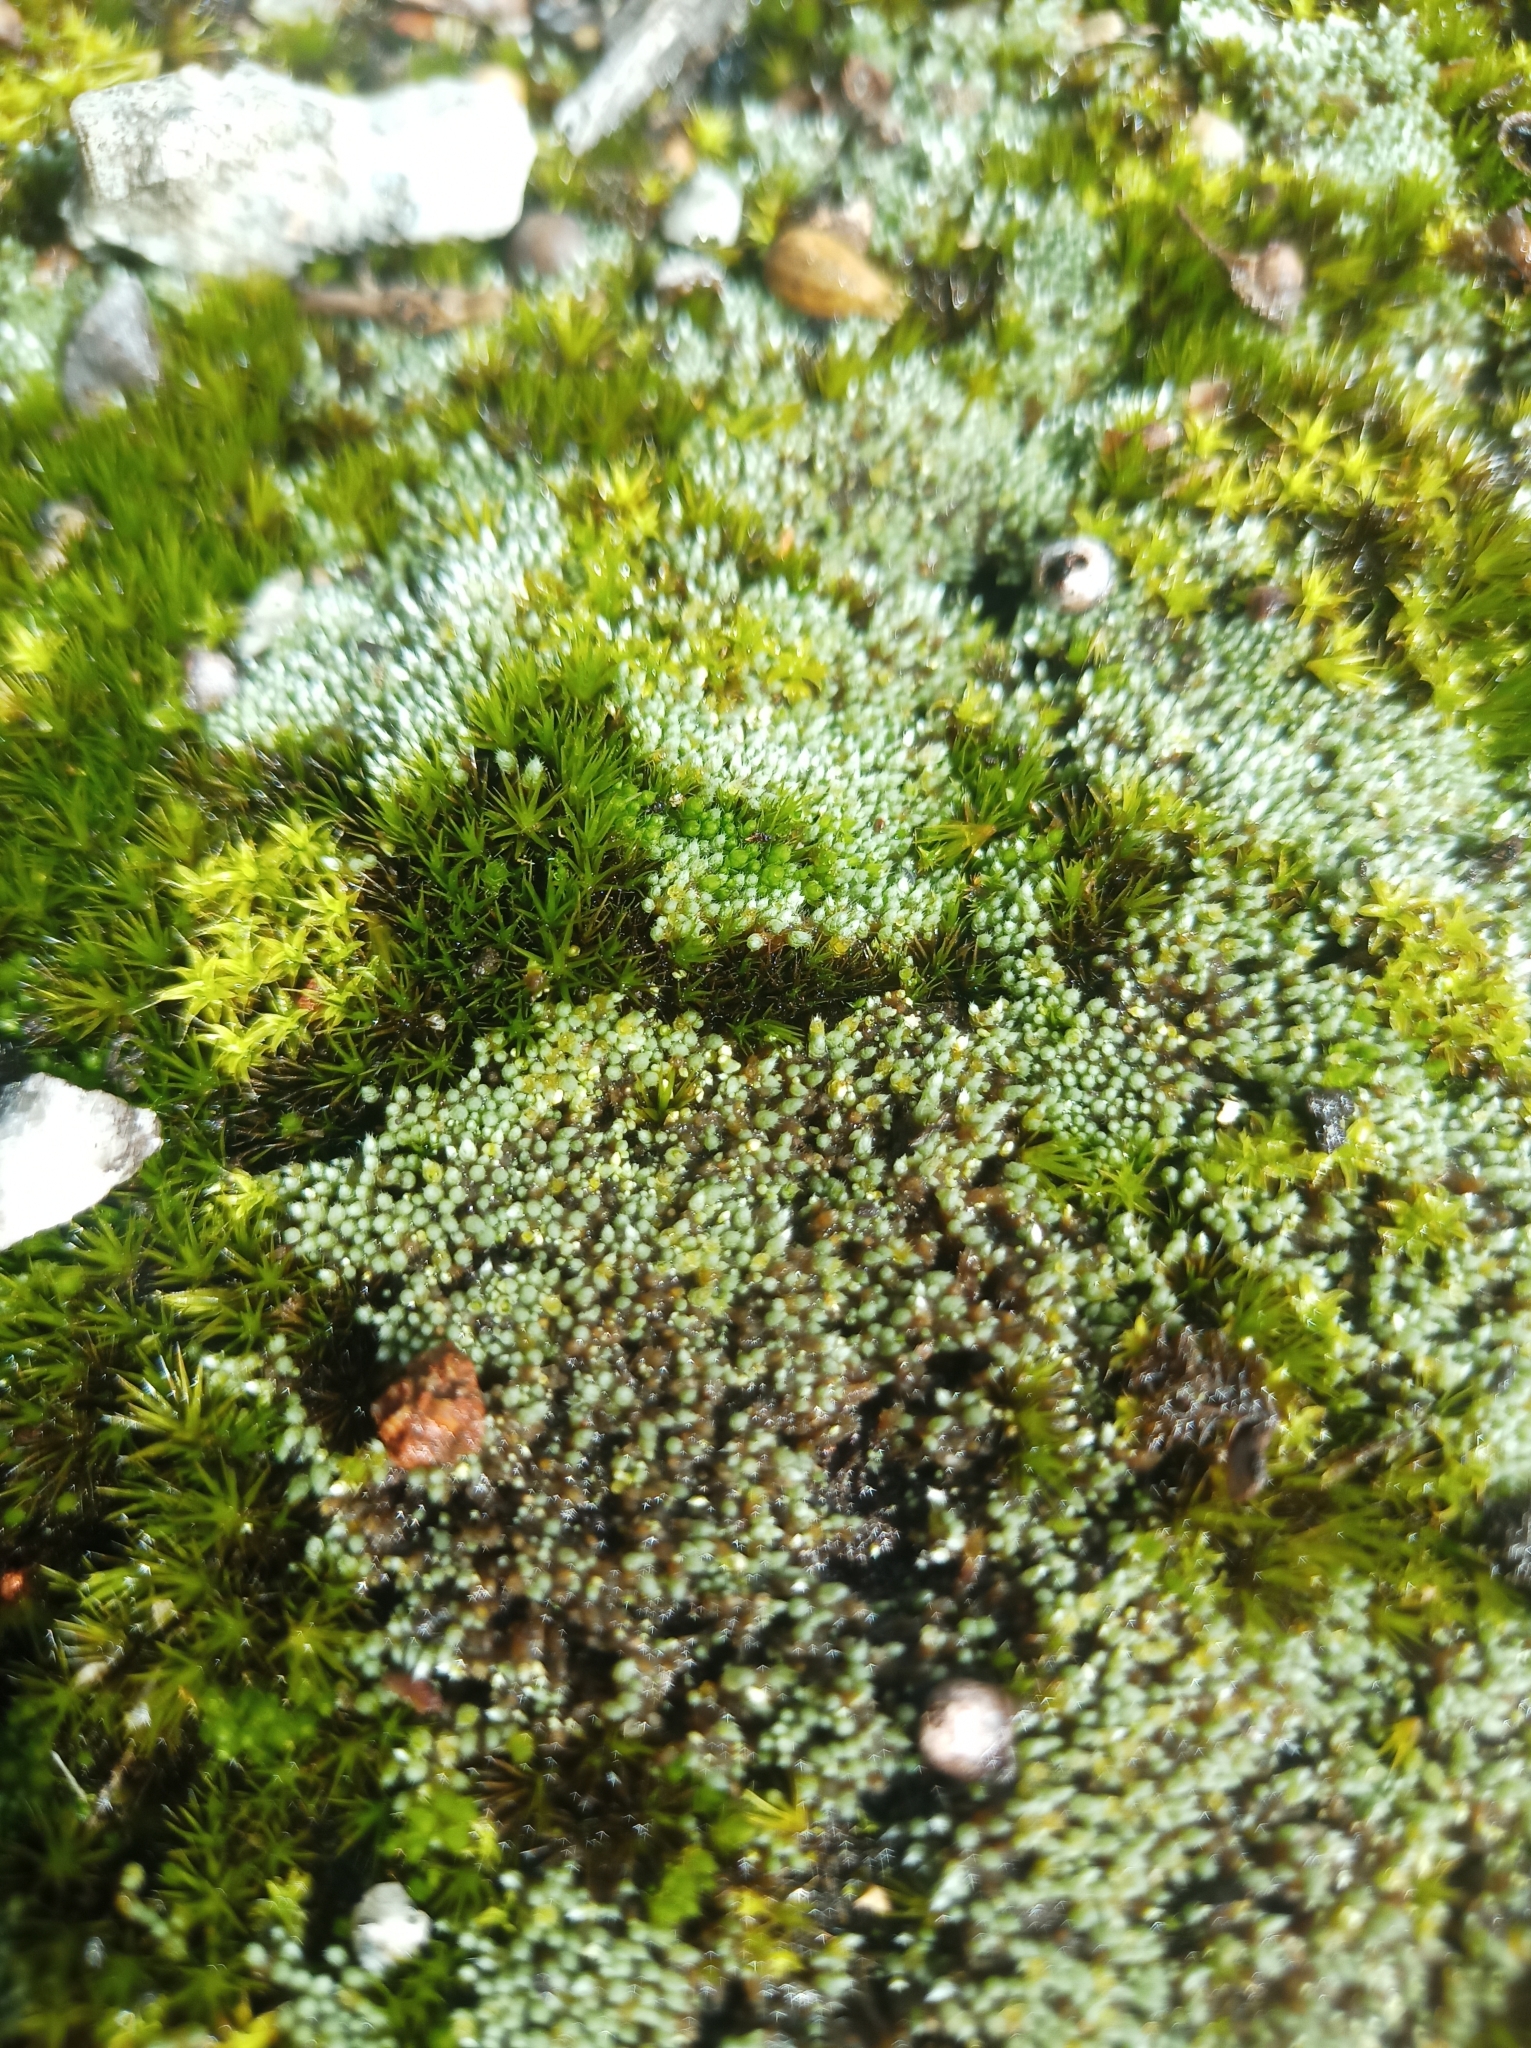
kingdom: Plantae
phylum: Bryophyta
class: Bryopsida
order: Bryales
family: Bryaceae
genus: Bryum
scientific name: Bryum argenteum
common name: Silver-moss
